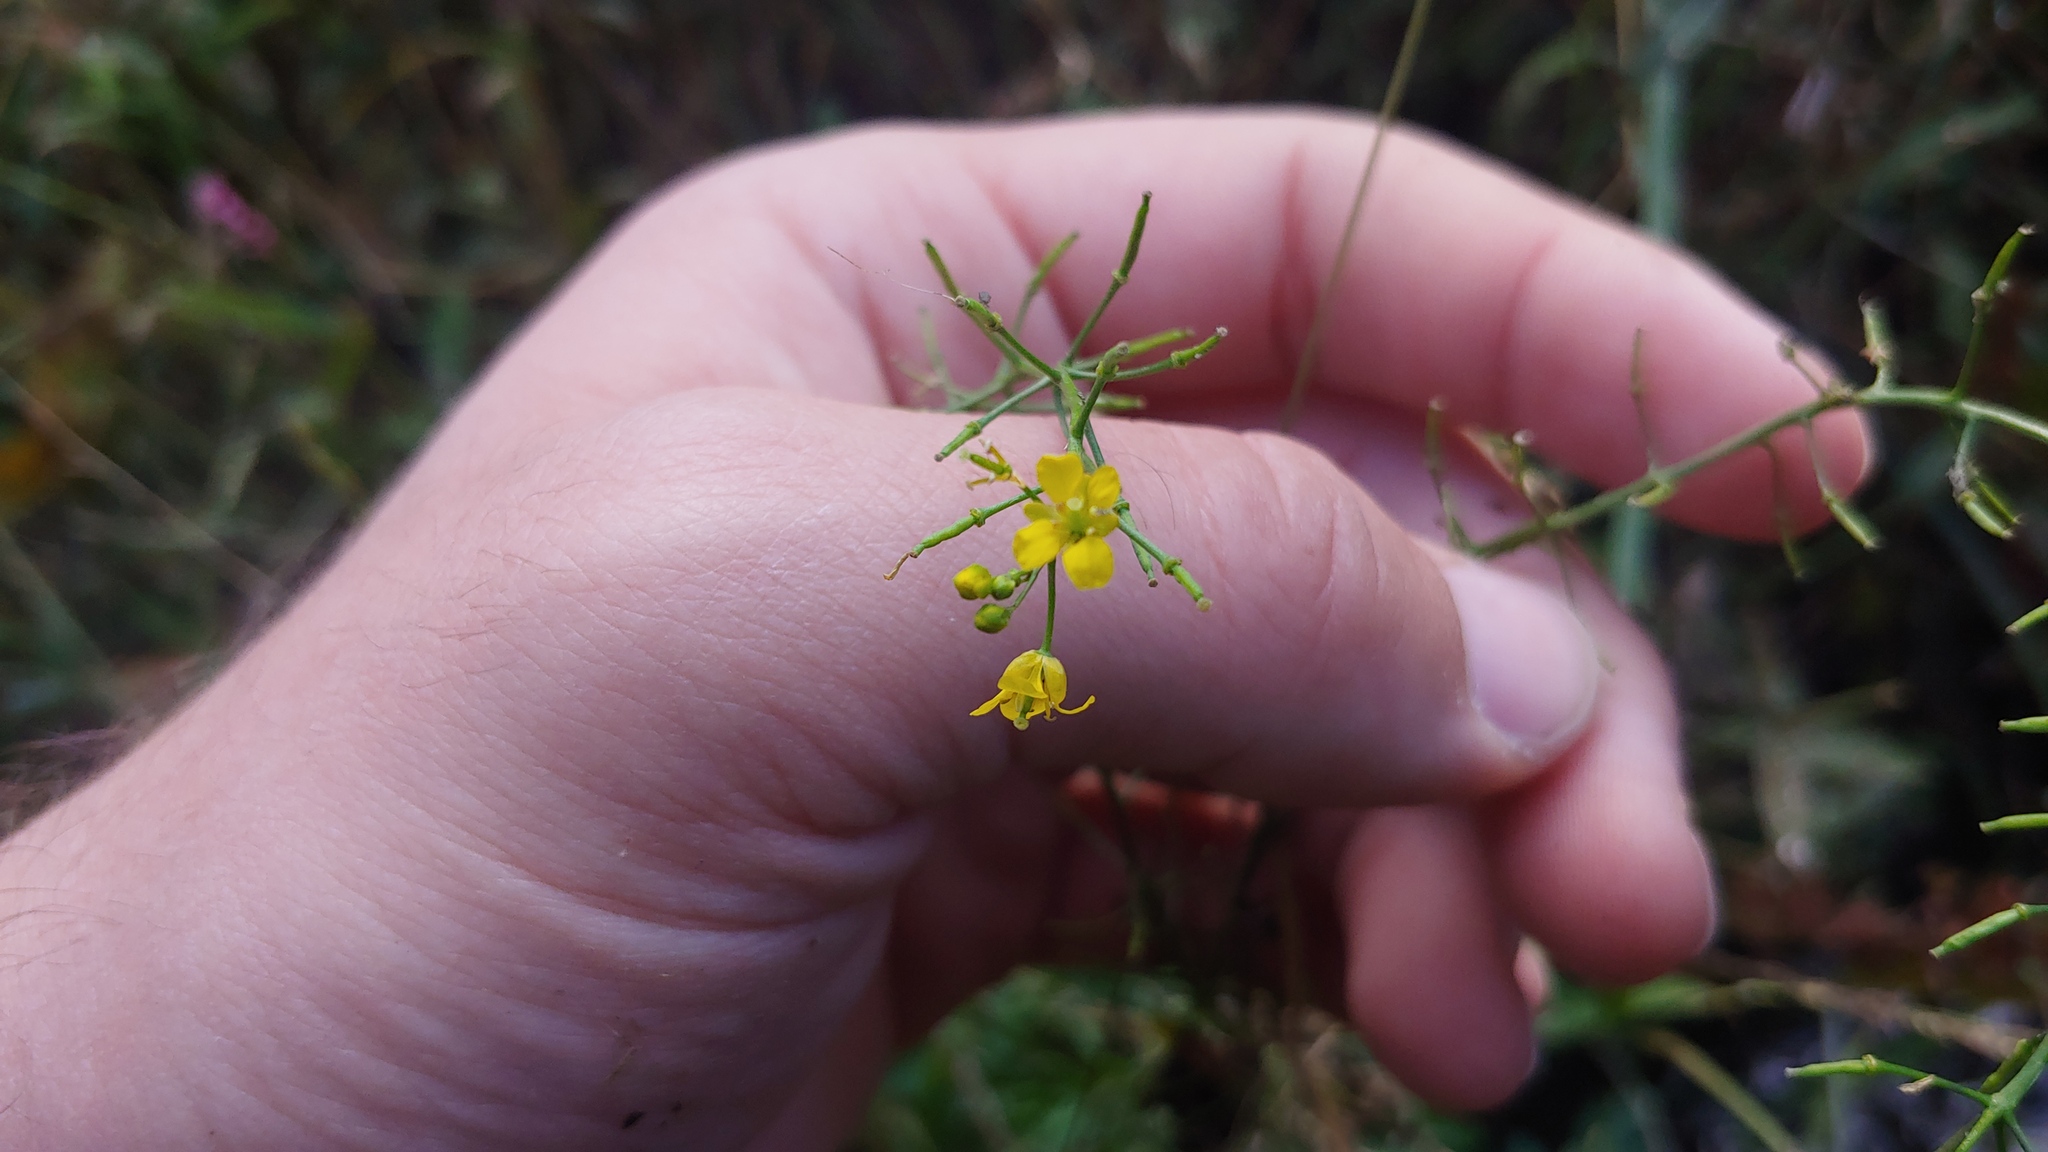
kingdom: Plantae
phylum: Tracheophyta
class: Magnoliopsida
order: Brassicales
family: Brassicaceae
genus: Rorippa
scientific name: Rorippa sylvestris
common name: Creeping yellowcress
